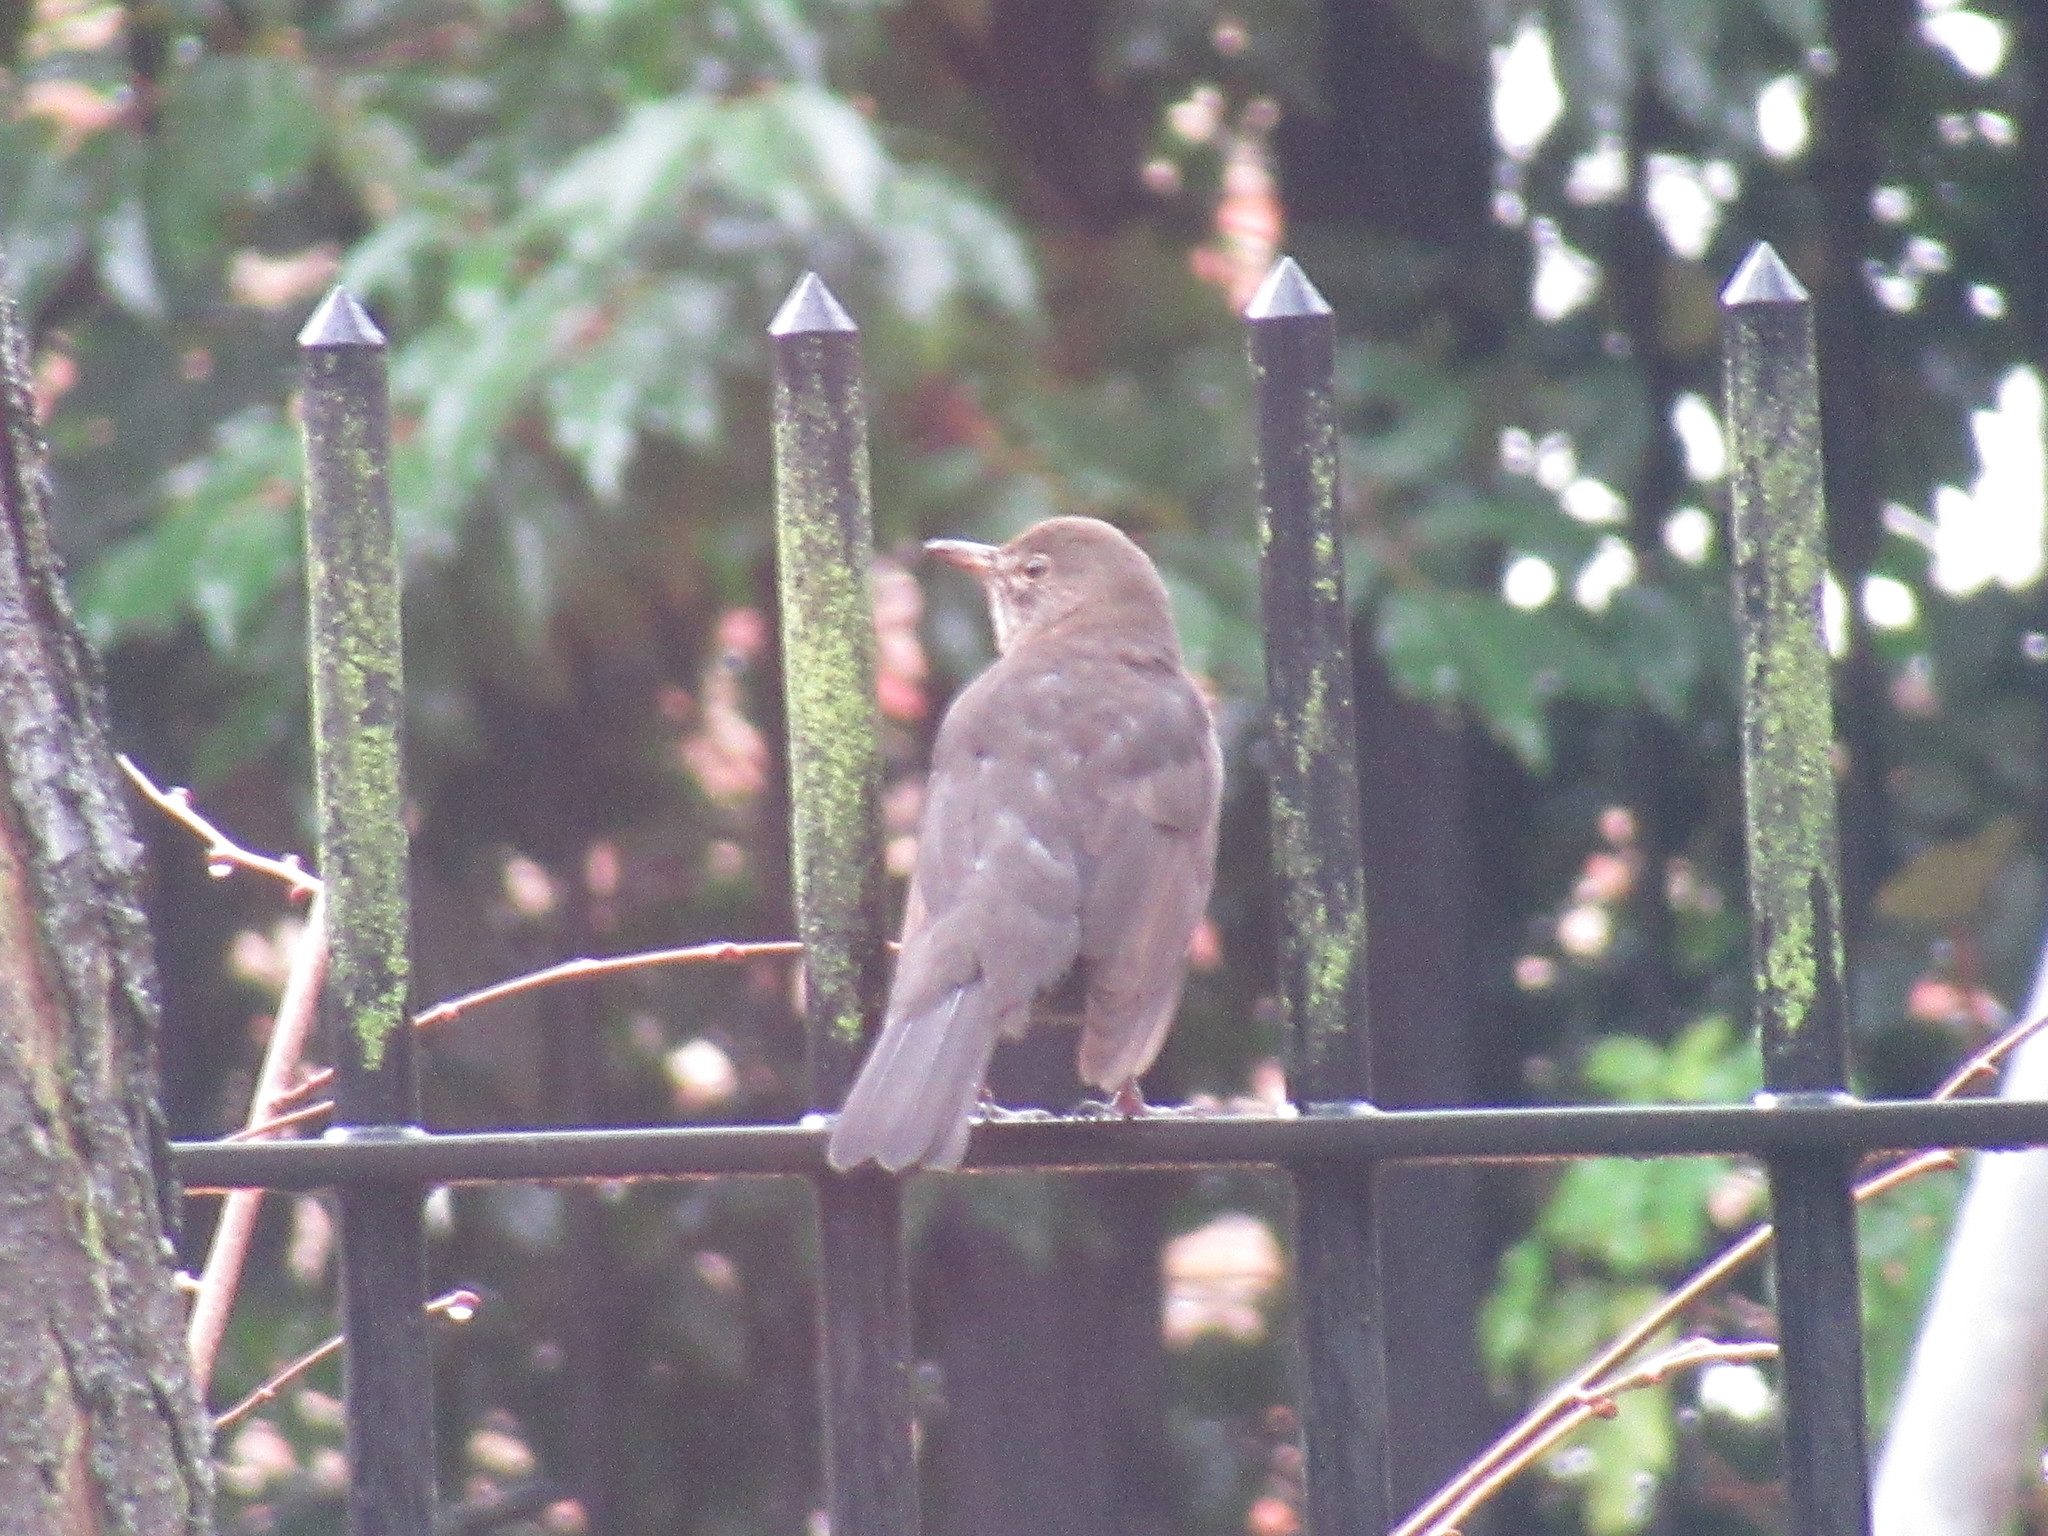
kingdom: Animalia
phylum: Chordata
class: Aves
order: Passeriformes
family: Turdidae
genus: Turdus
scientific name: Turdus merula
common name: Common blackbird
